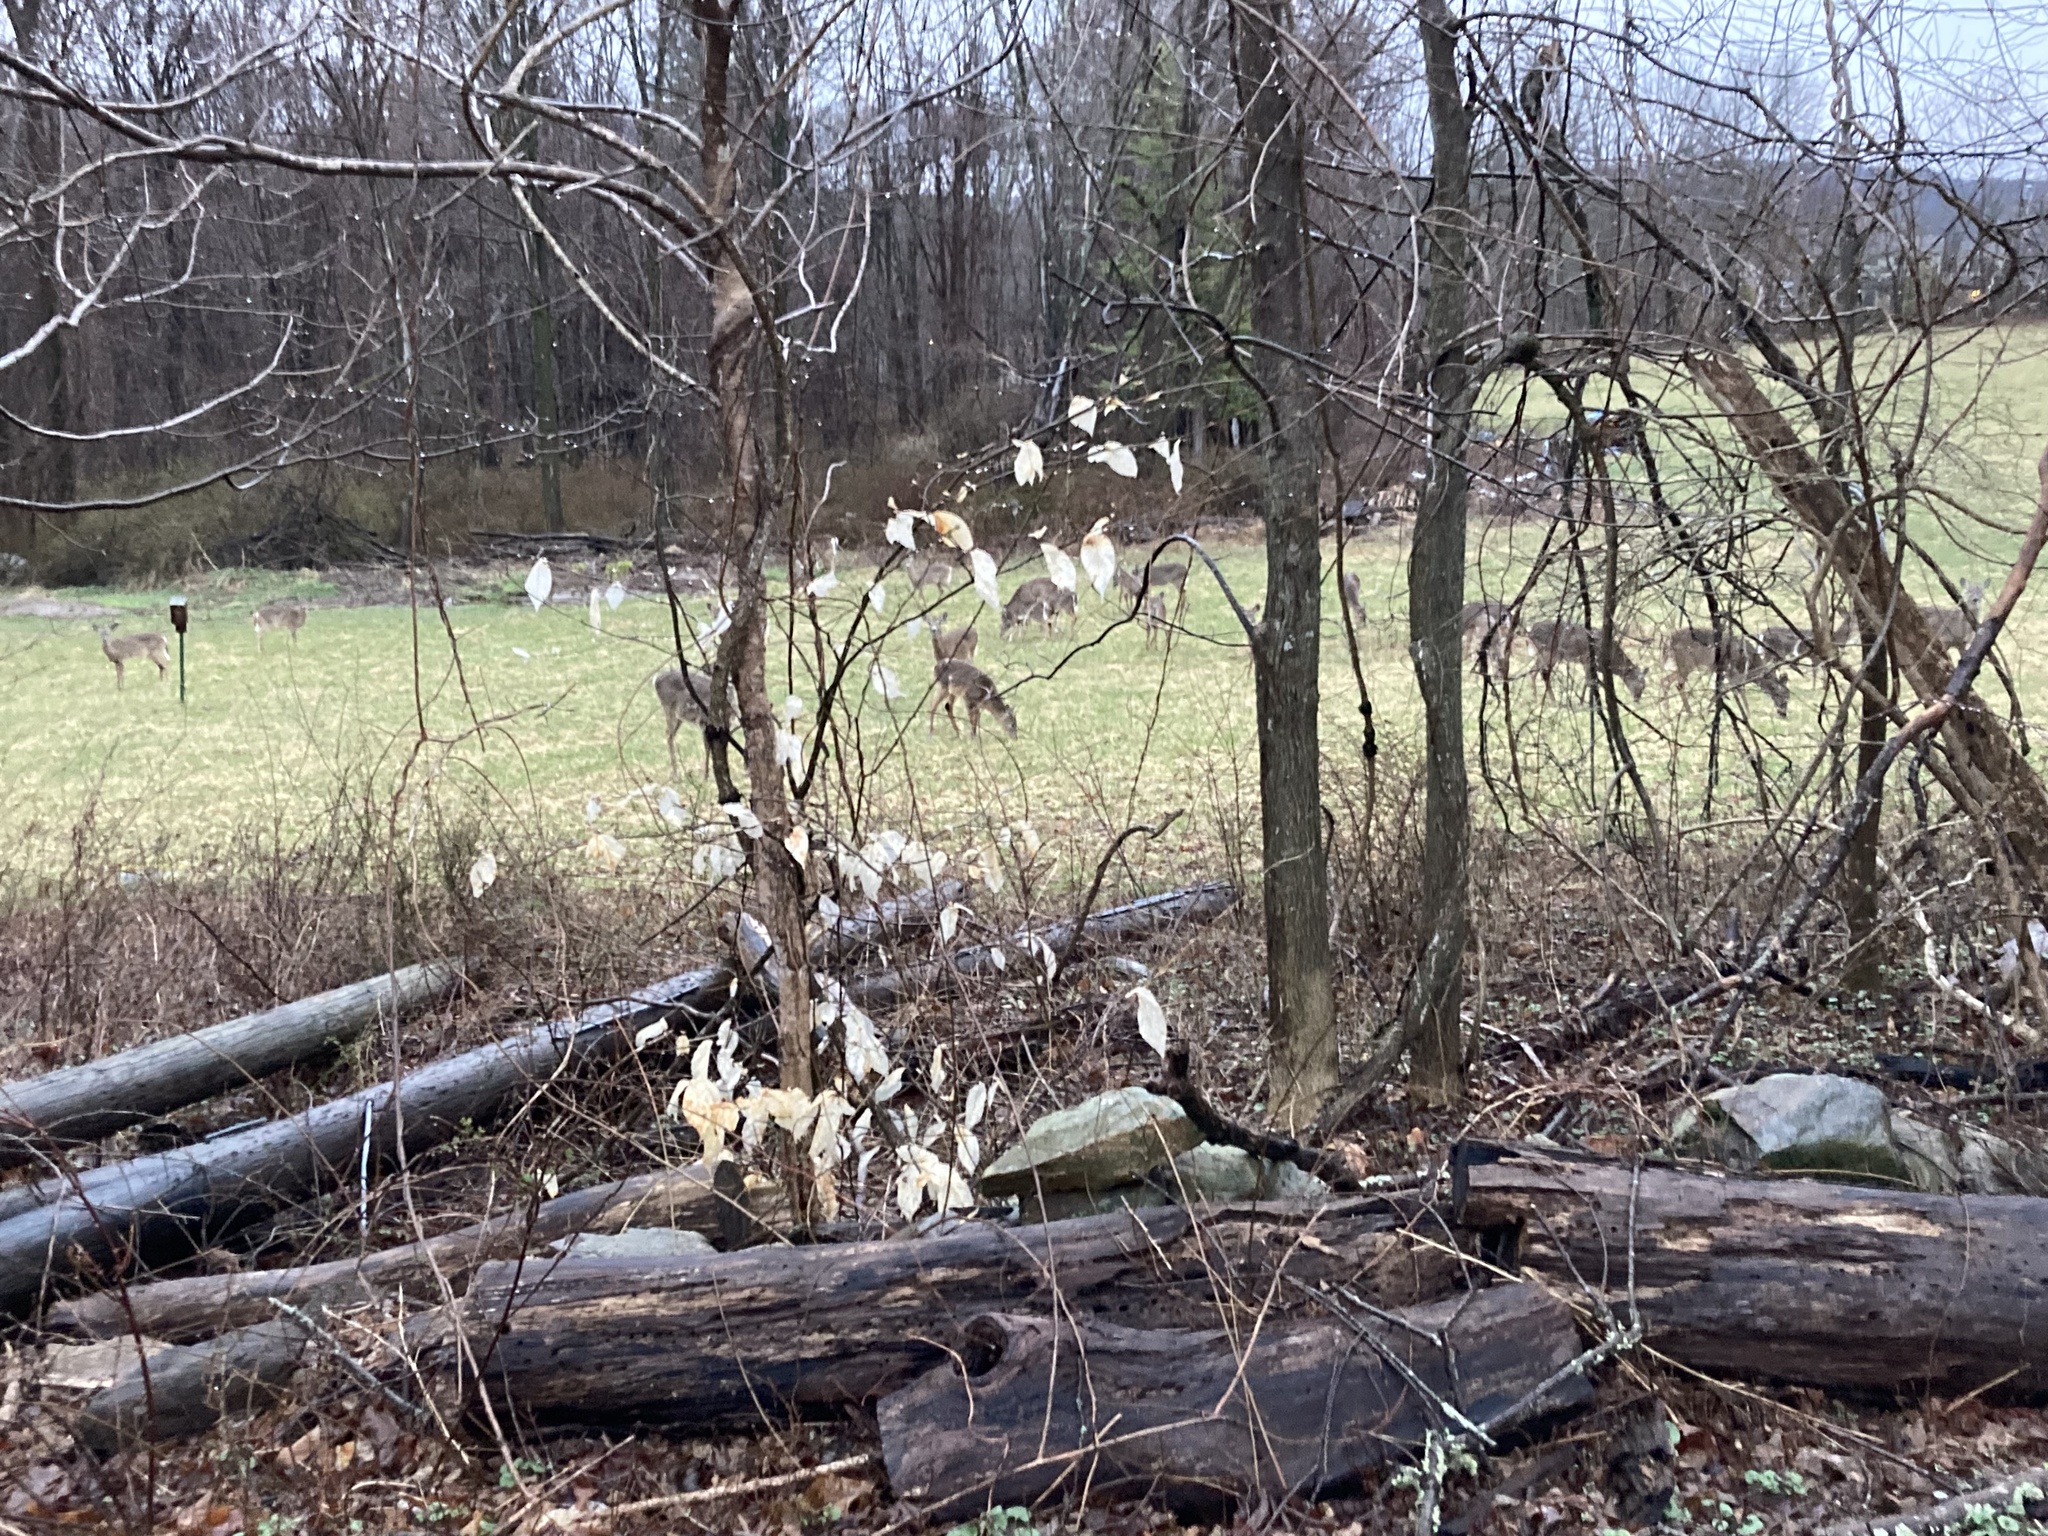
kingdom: Animalia
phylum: Chordata
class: Mammalia
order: Artiodactyla
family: Cervidae
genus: Odocoileus
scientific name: Odocoileus virginianus
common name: White-tailed deer
